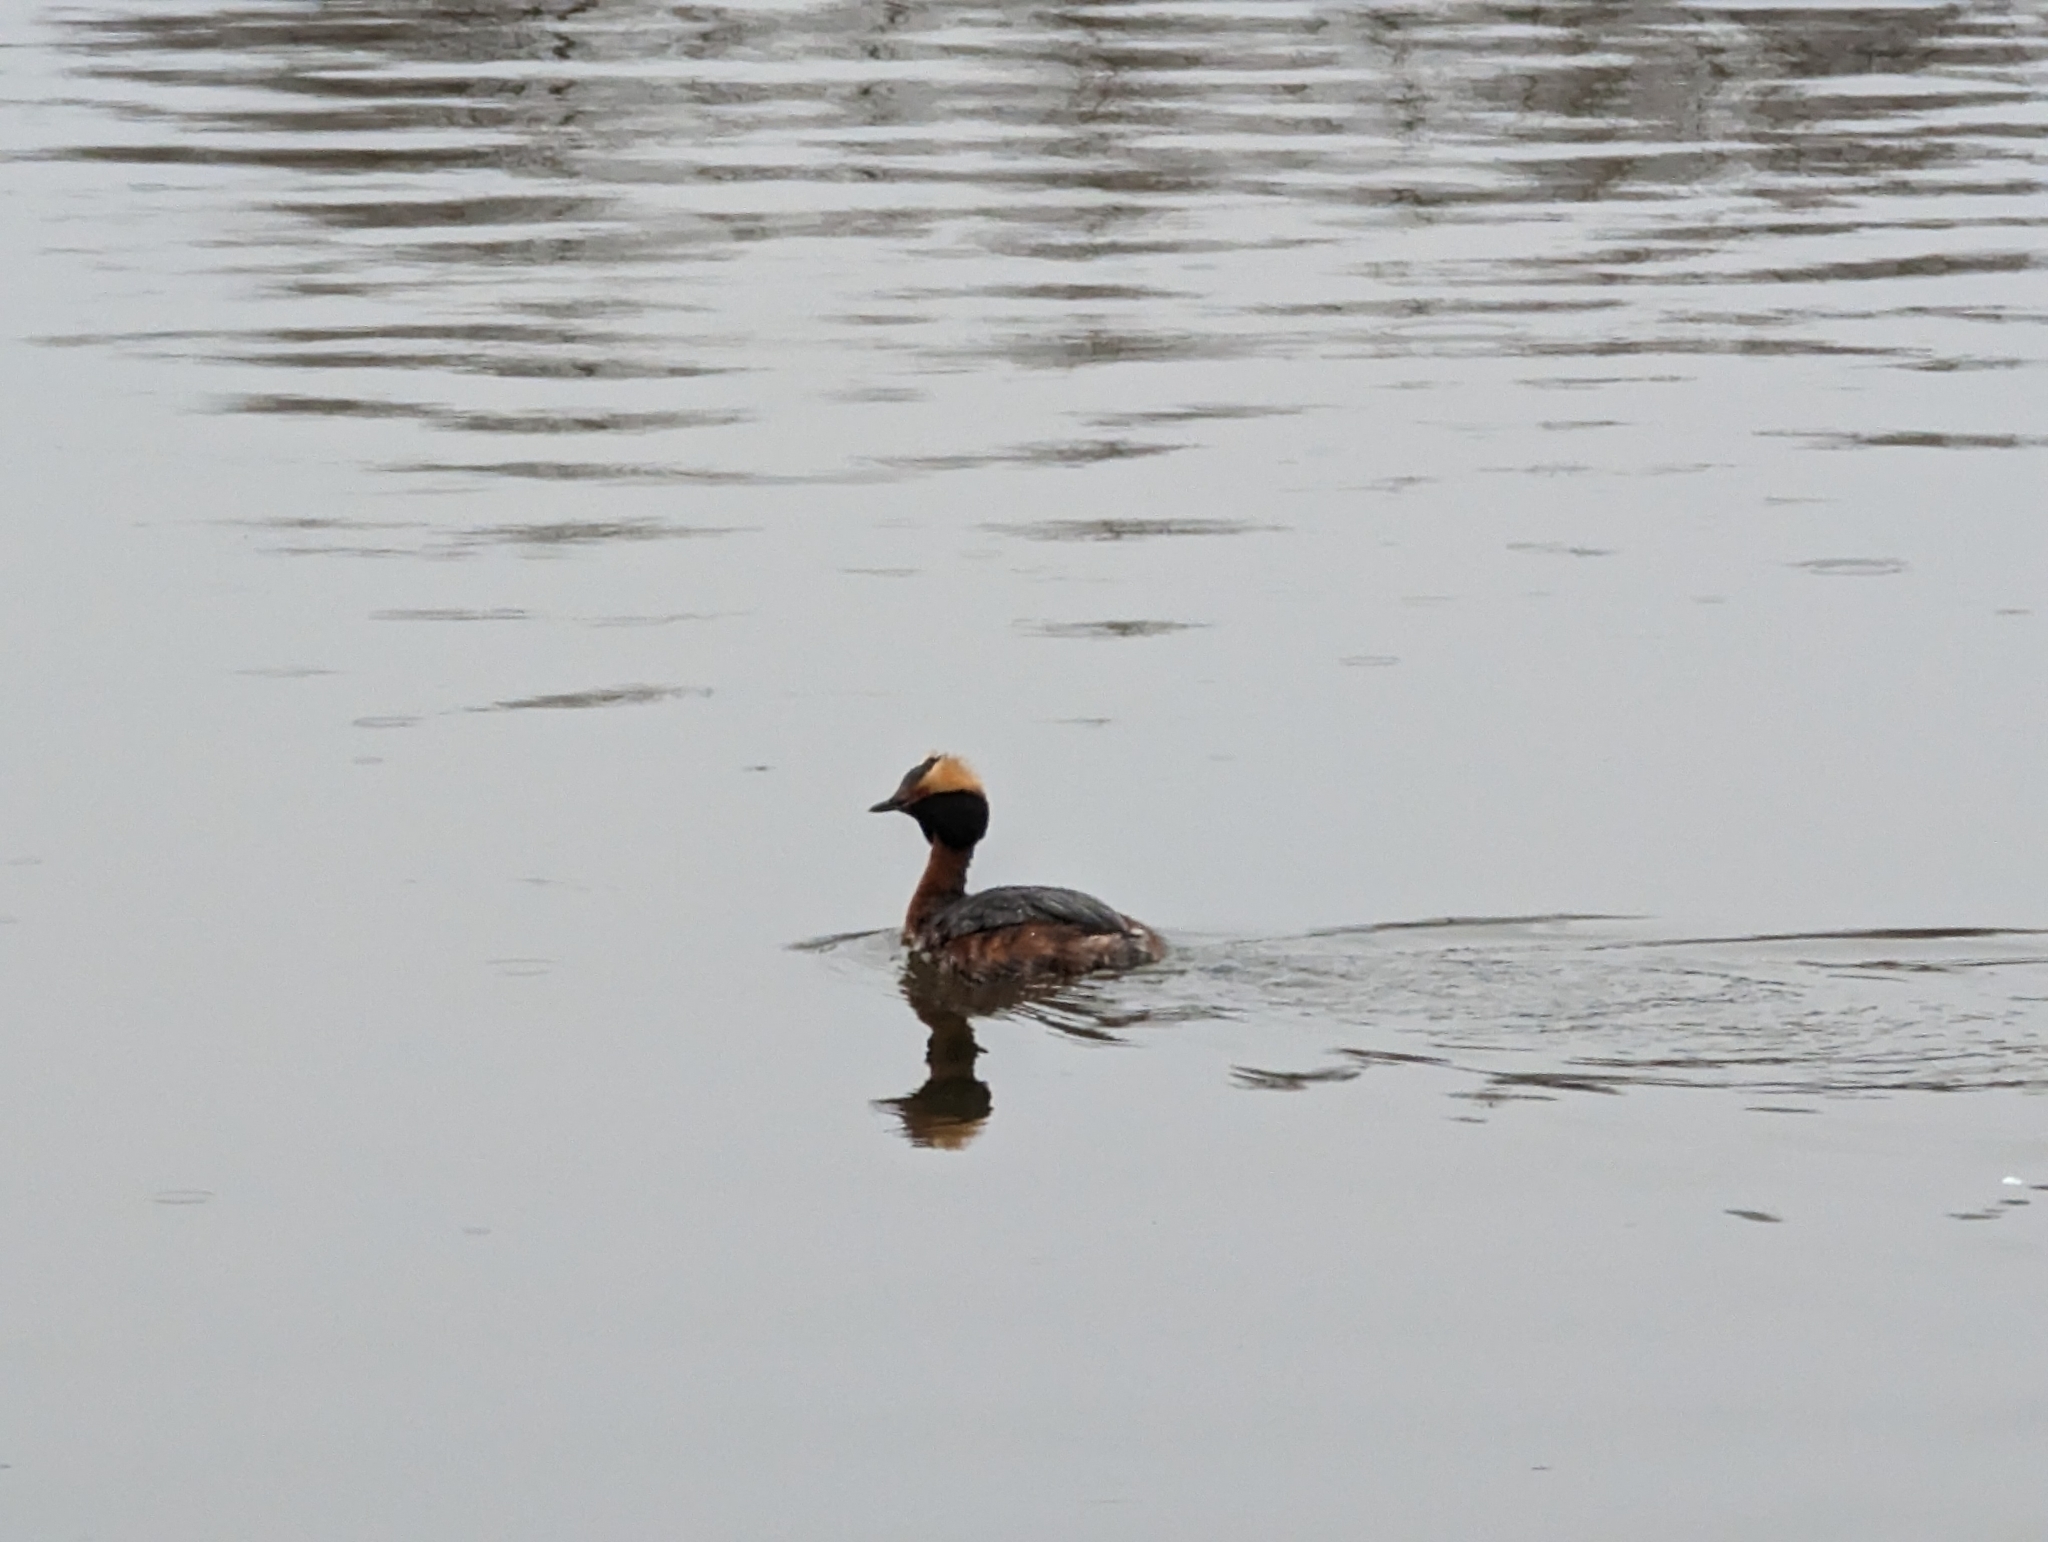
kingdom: Animalia
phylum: Chordata
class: Aves
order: Podicipediformes
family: Podicipedidae
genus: Podiceps
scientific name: Podiceps auritus
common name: Horned grebe
